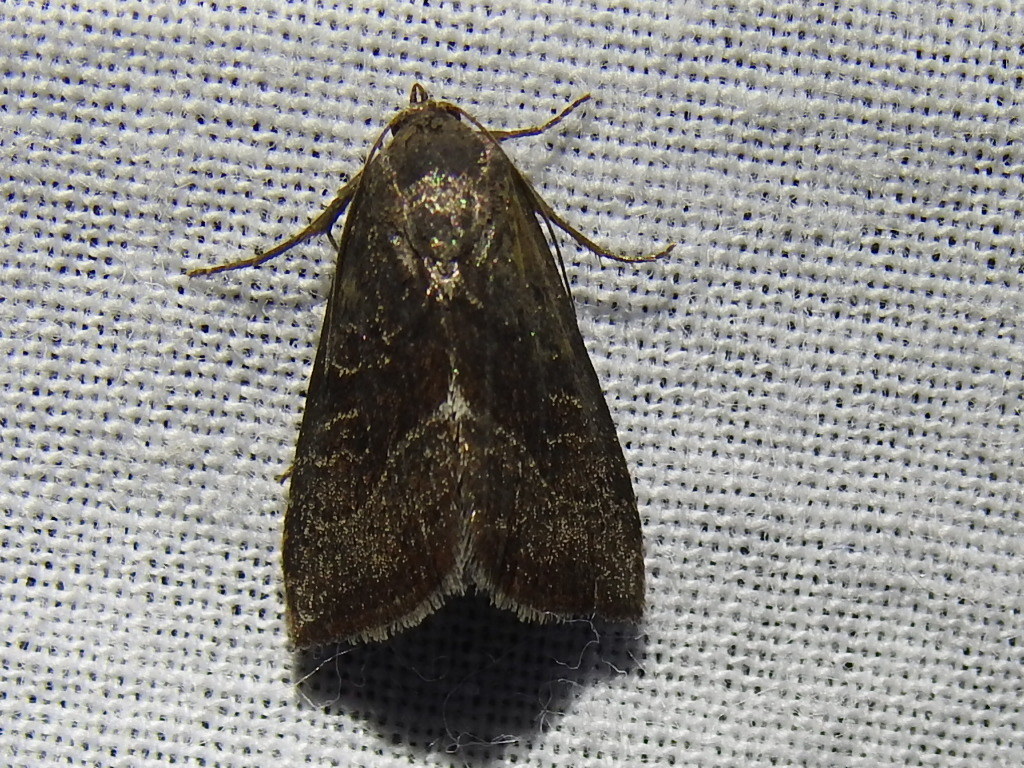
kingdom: Animalia
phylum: Arthropoda
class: Insecta
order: Lepidoptera
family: Noctuidae
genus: Galgula
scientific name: Galgula partita
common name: Wedgeling
